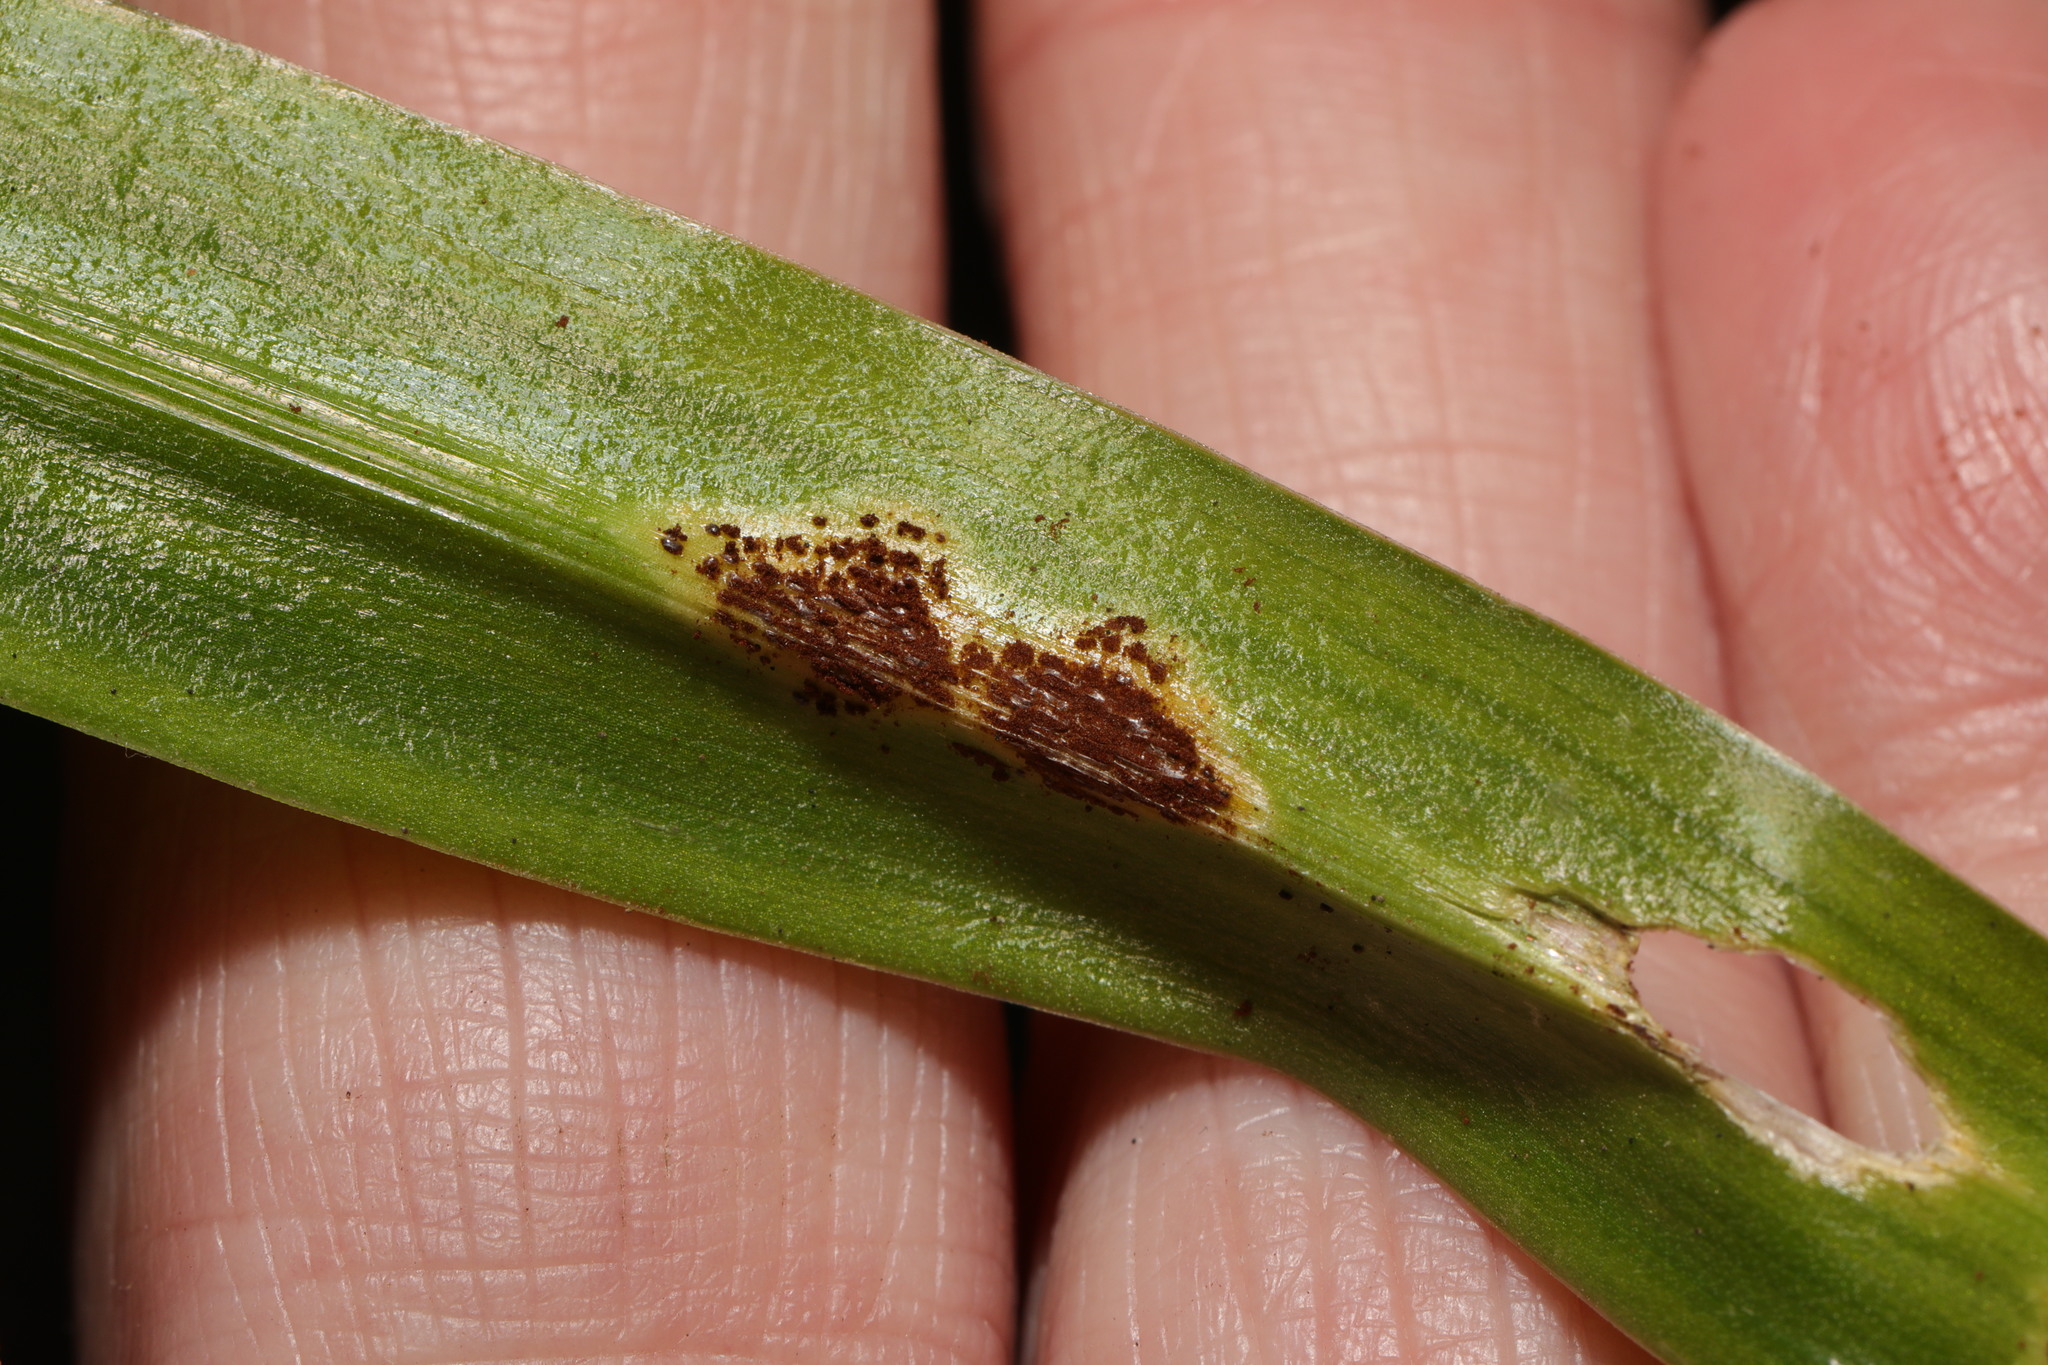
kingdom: Fungi
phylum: Basidiomycota
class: Pucciniomycetes
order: Pucciniales
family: Pucciniaceae
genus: Uromyces
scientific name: Uromyces hyacinthi
